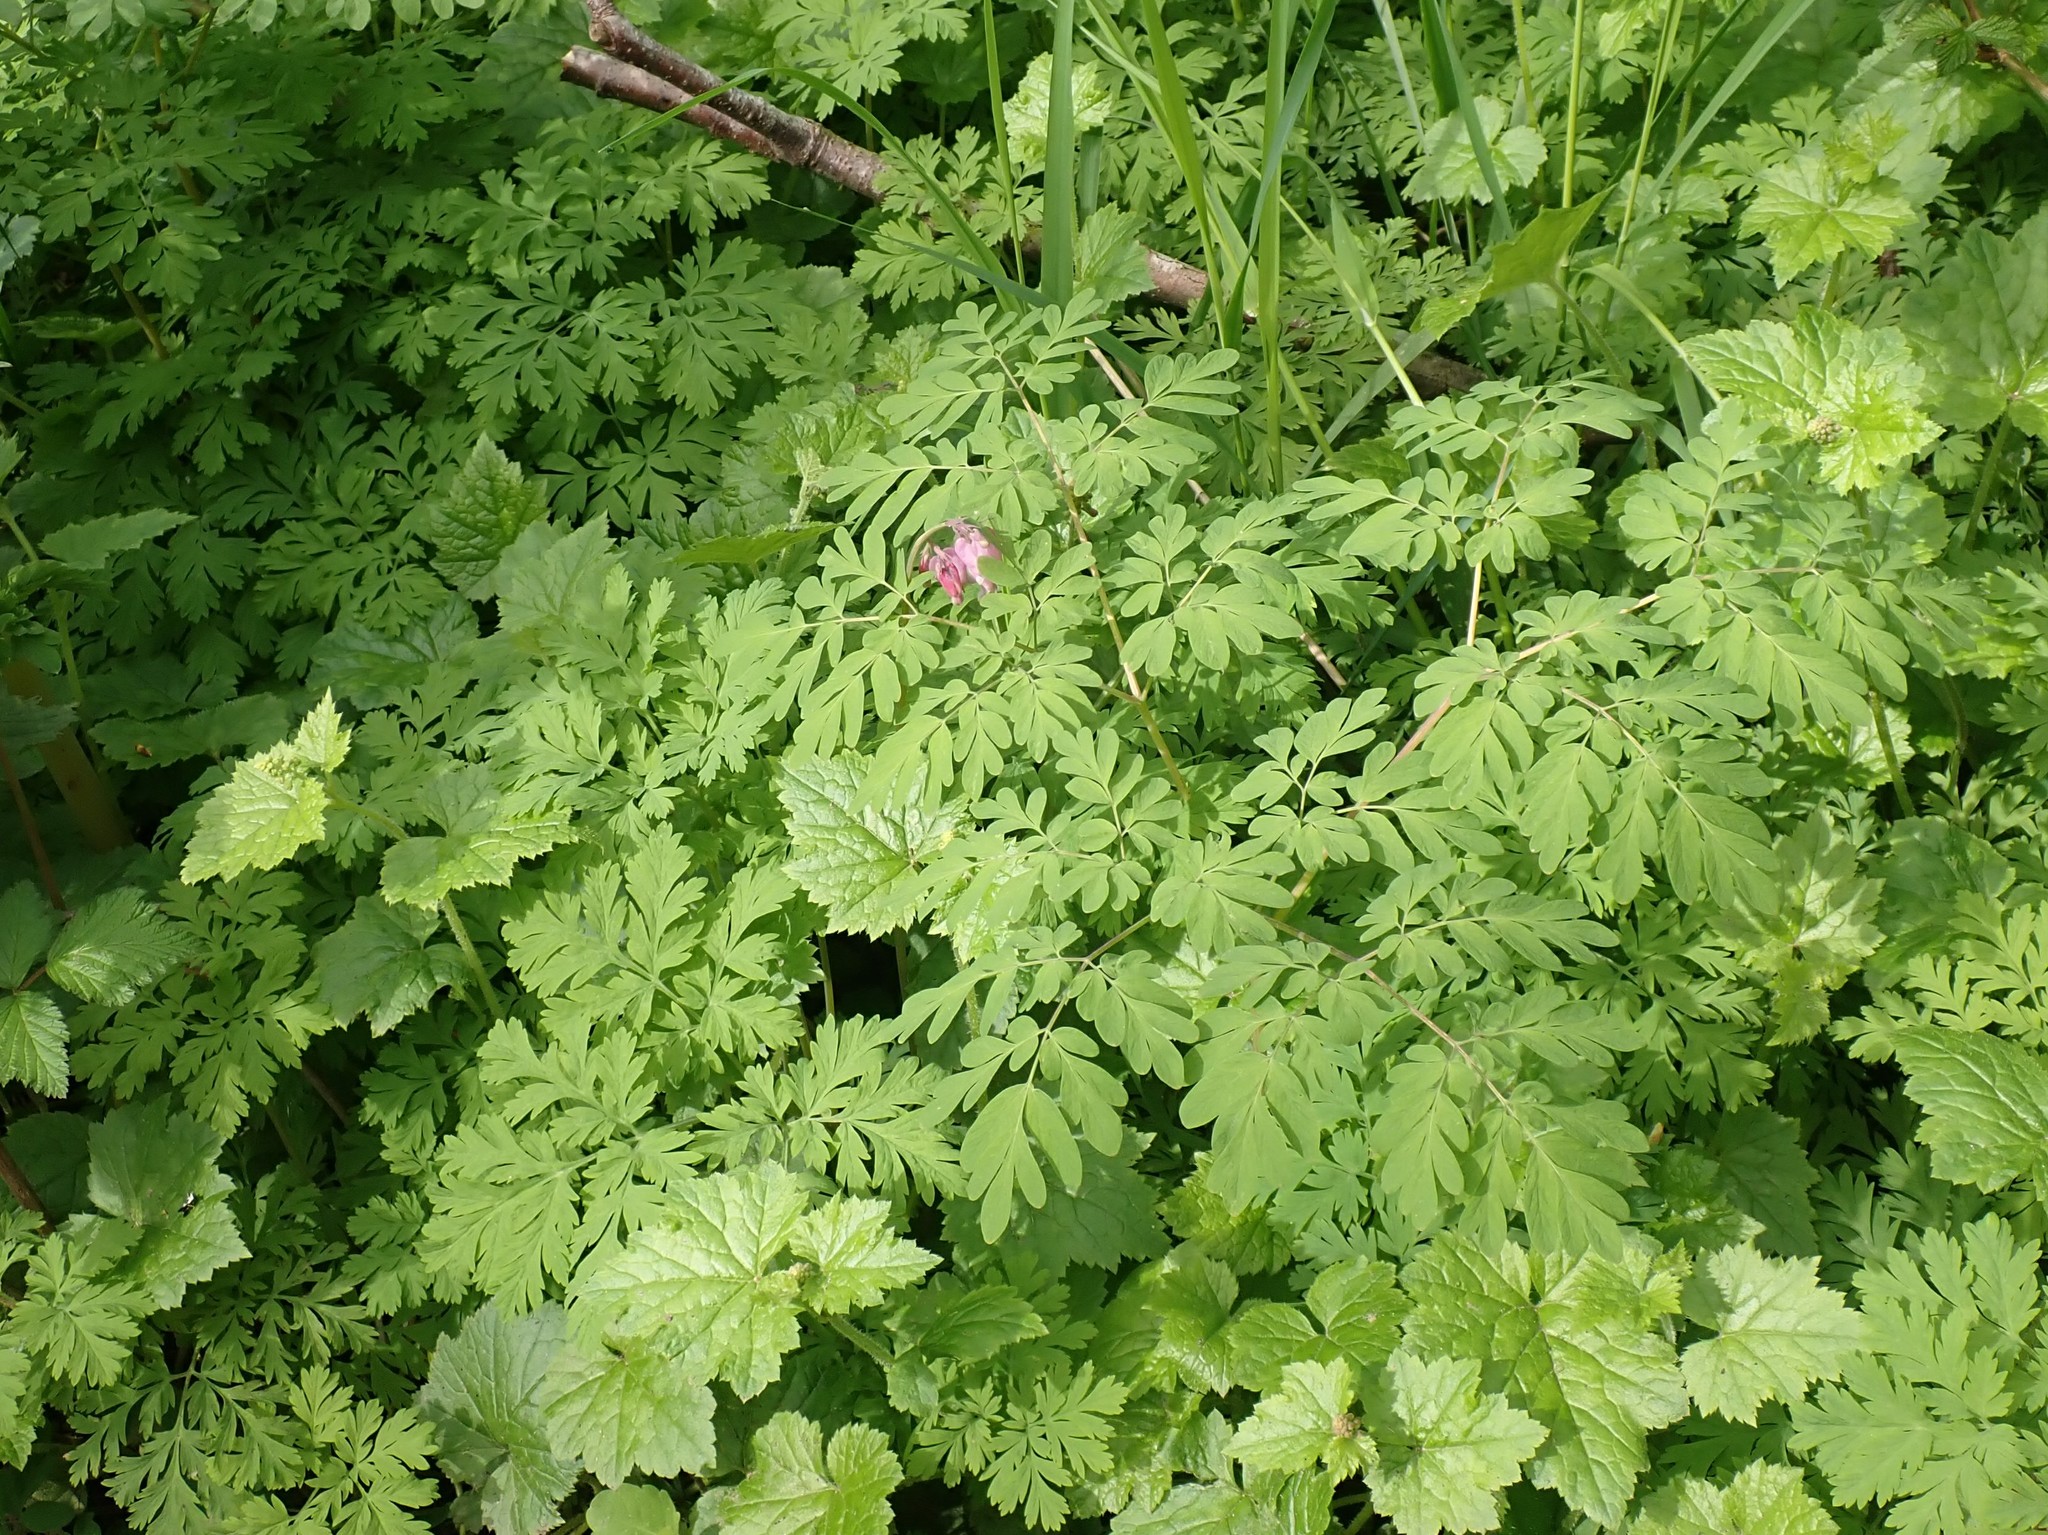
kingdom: Plantae
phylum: Tracheophyta
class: Magnoliopsida
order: Ranunculales
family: Papaveraceae
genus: Dicentra
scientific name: Dicentra formosa
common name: Bleeding-heart
